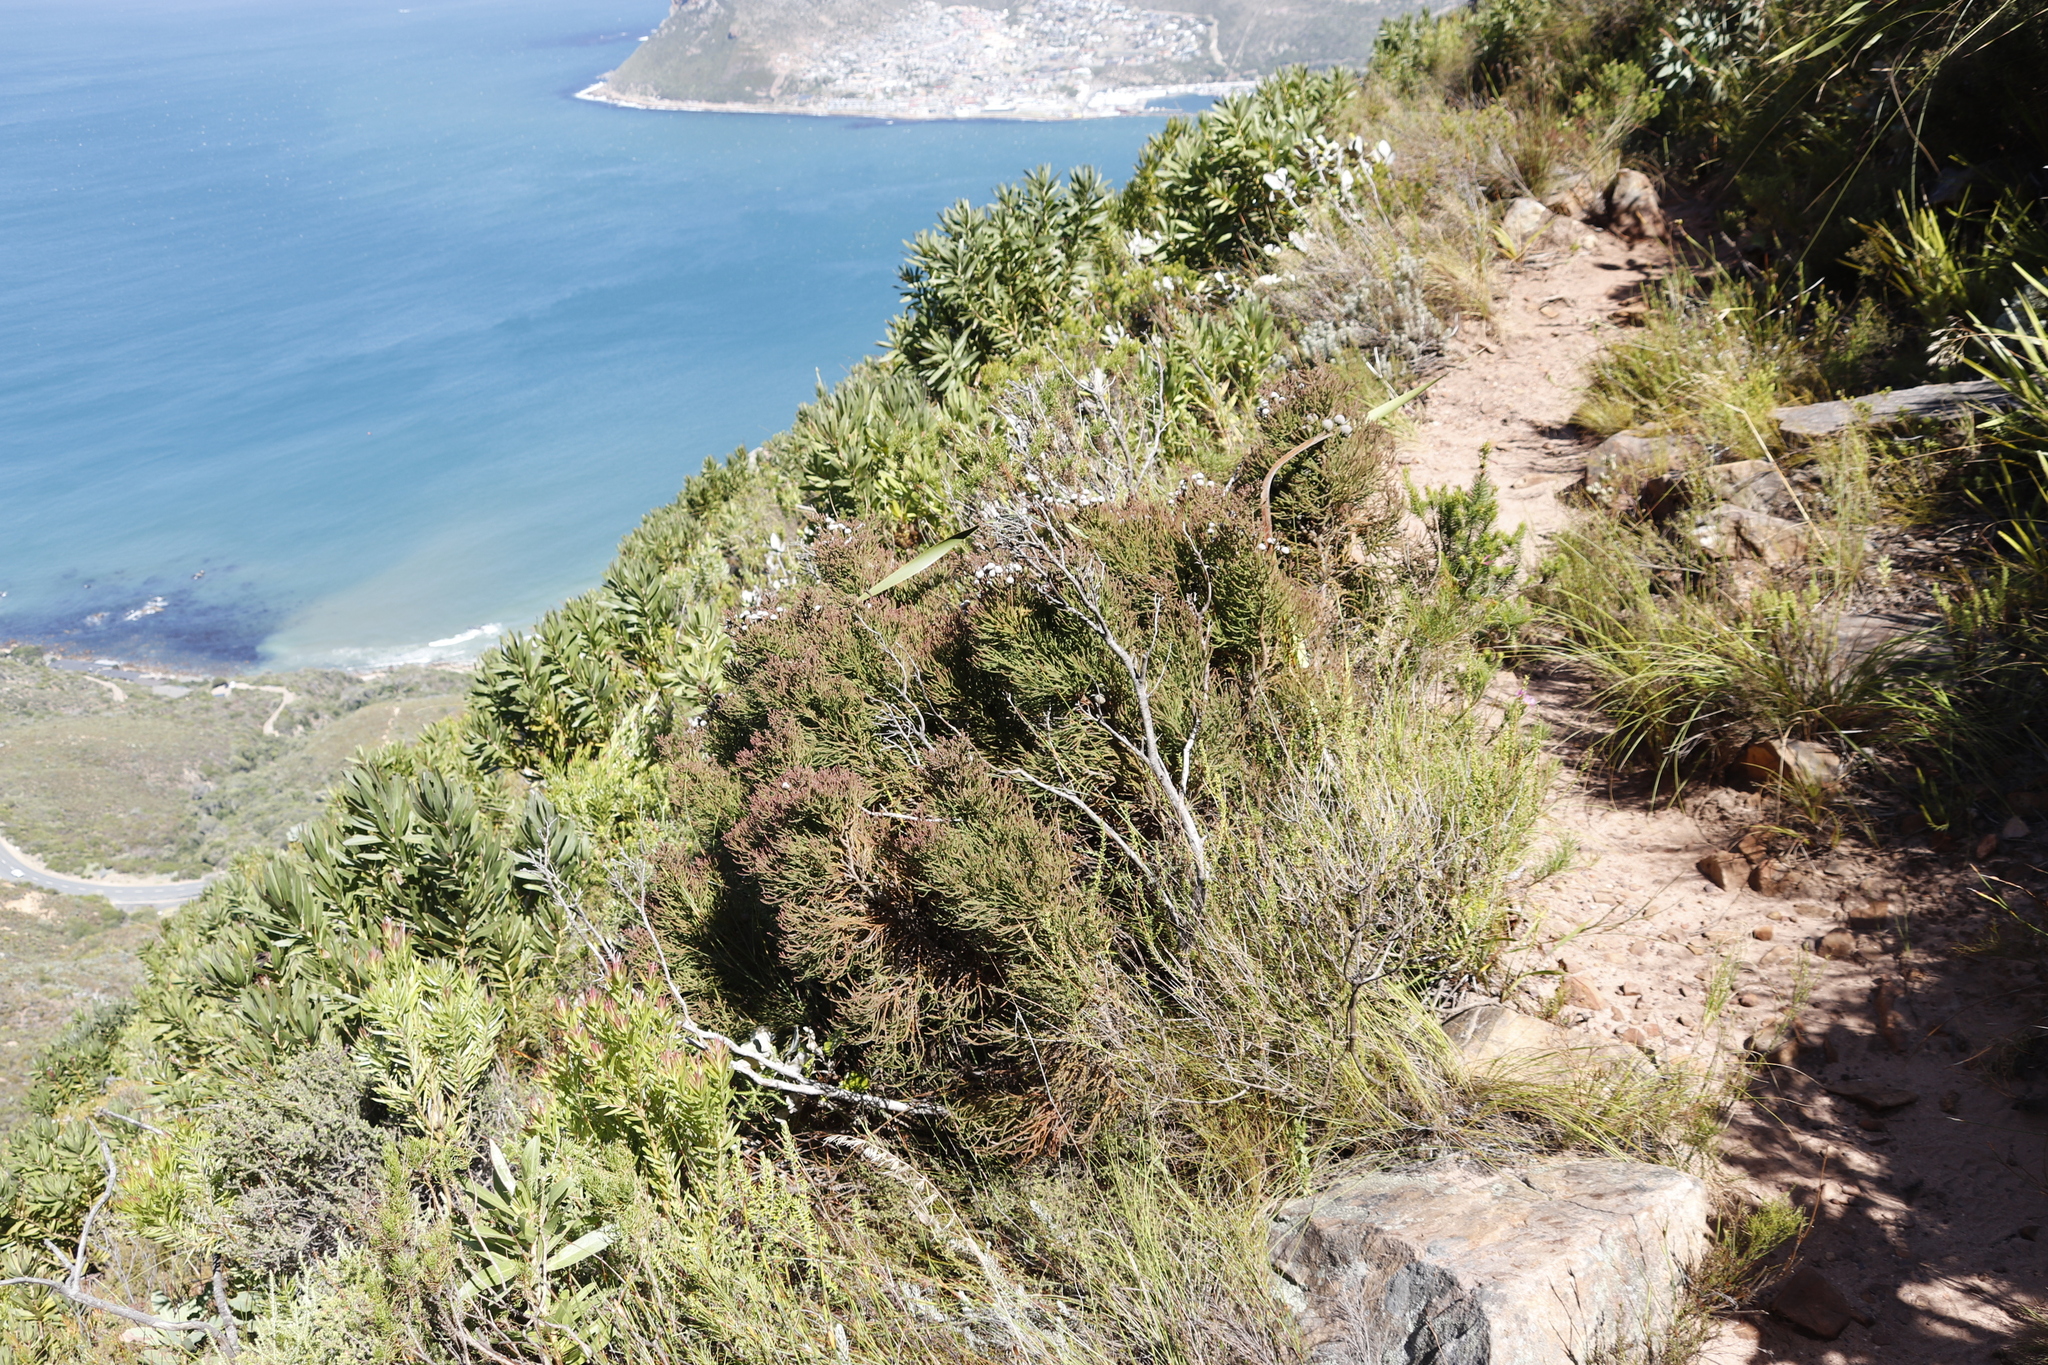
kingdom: Plantae
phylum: Tracheophyta
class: Magnoliopsida
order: Bruniales
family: Bruniaceae
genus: Brunia
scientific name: Brunia noduliflora
